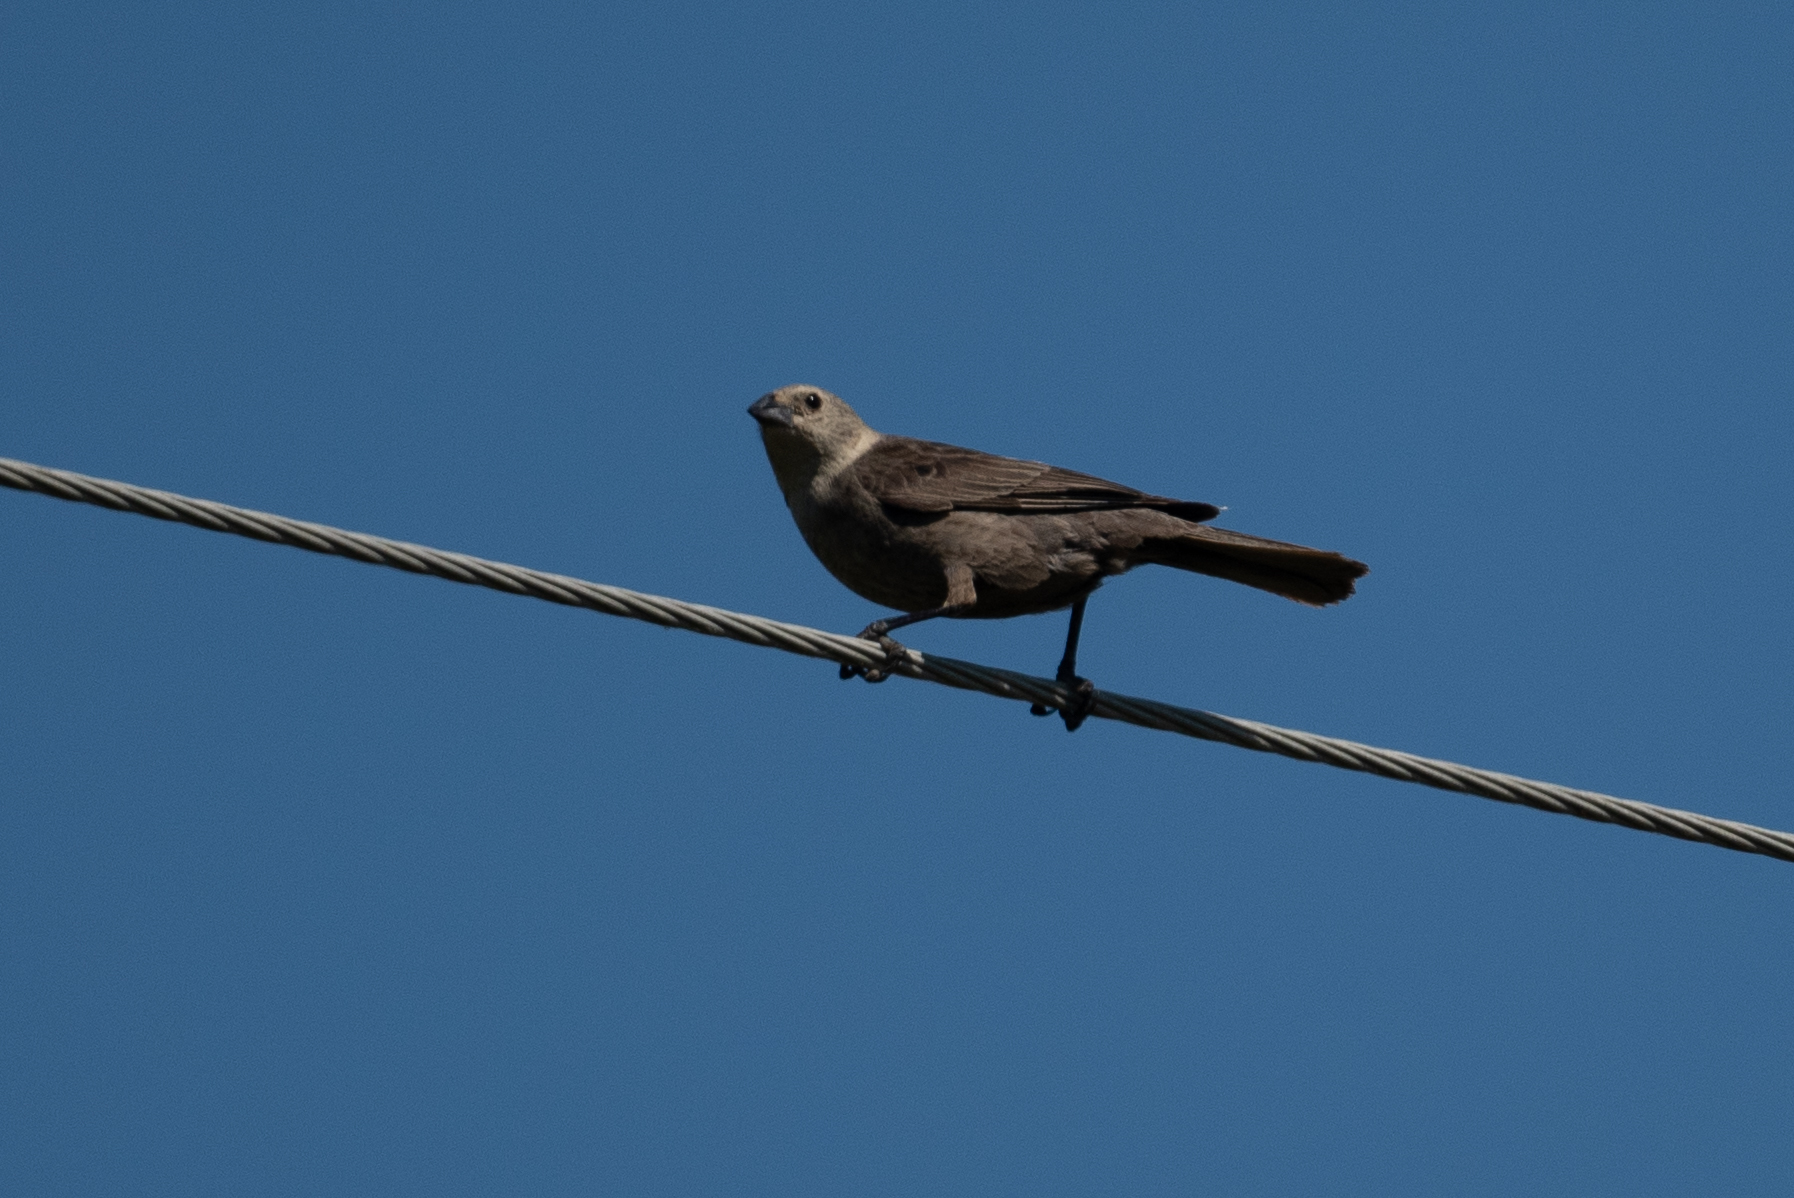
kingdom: Animalia
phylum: Chordata
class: Aves
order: Passeriformes
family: Icteridae
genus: Molothrus
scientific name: Molothrus ater
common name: Brown-headed cowbird
